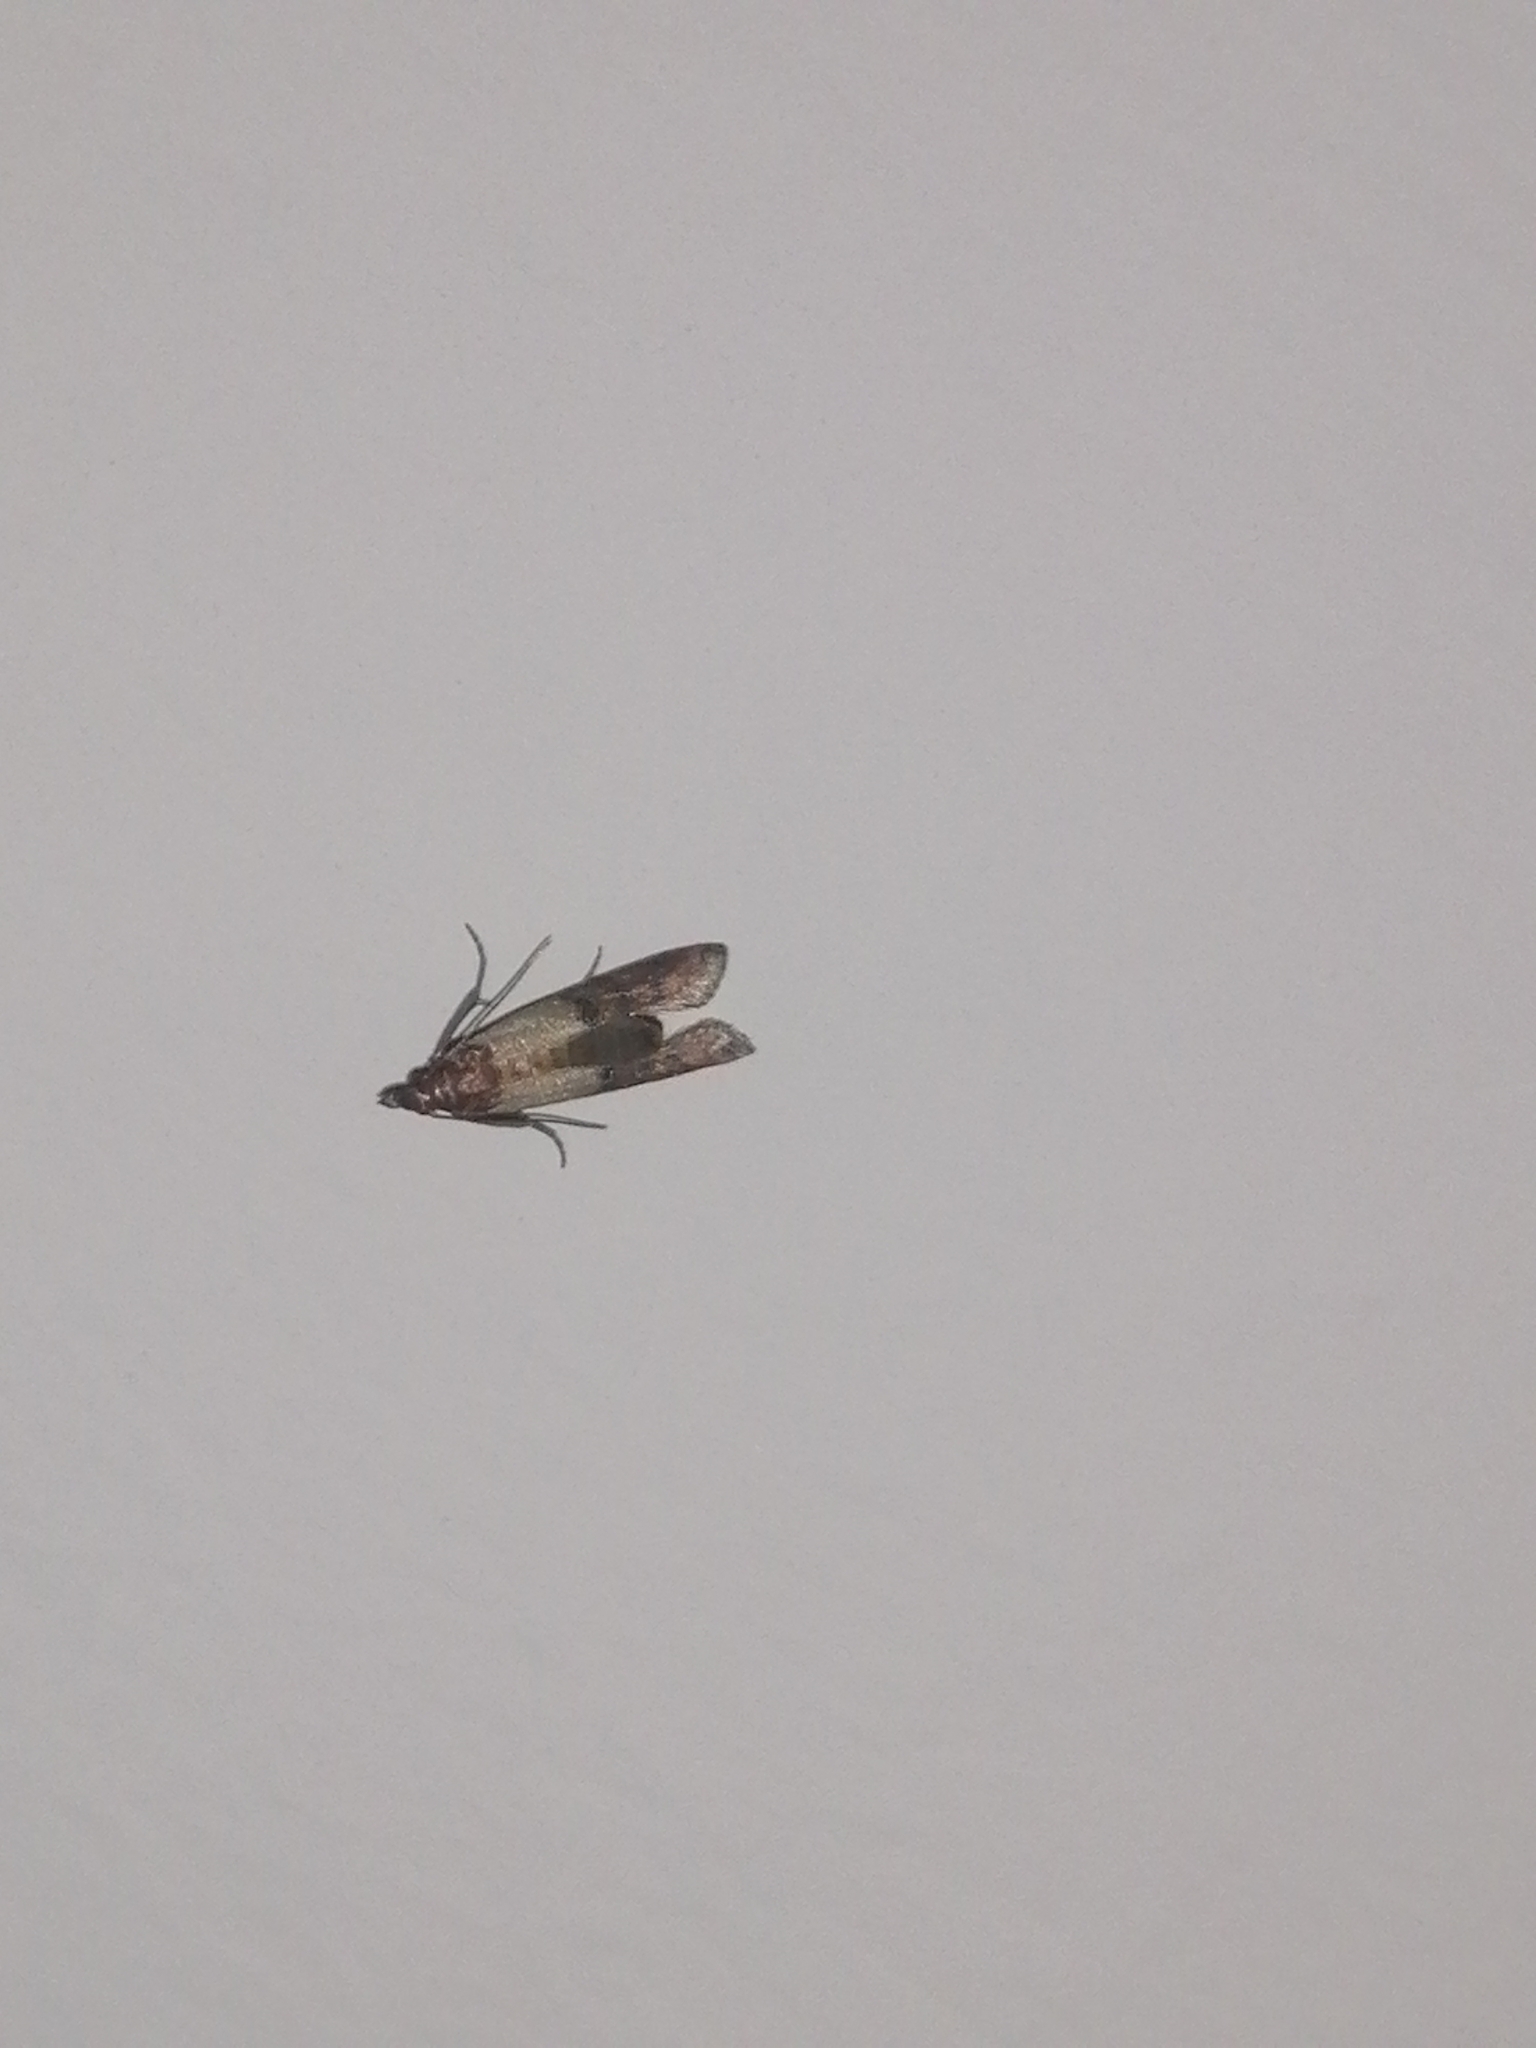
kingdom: Animalia
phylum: Arthropoda
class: Insecta
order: Lepidoptera
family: Pyralidae
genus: Plodia
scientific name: Plodia interpunctella
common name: Indian meal moth
